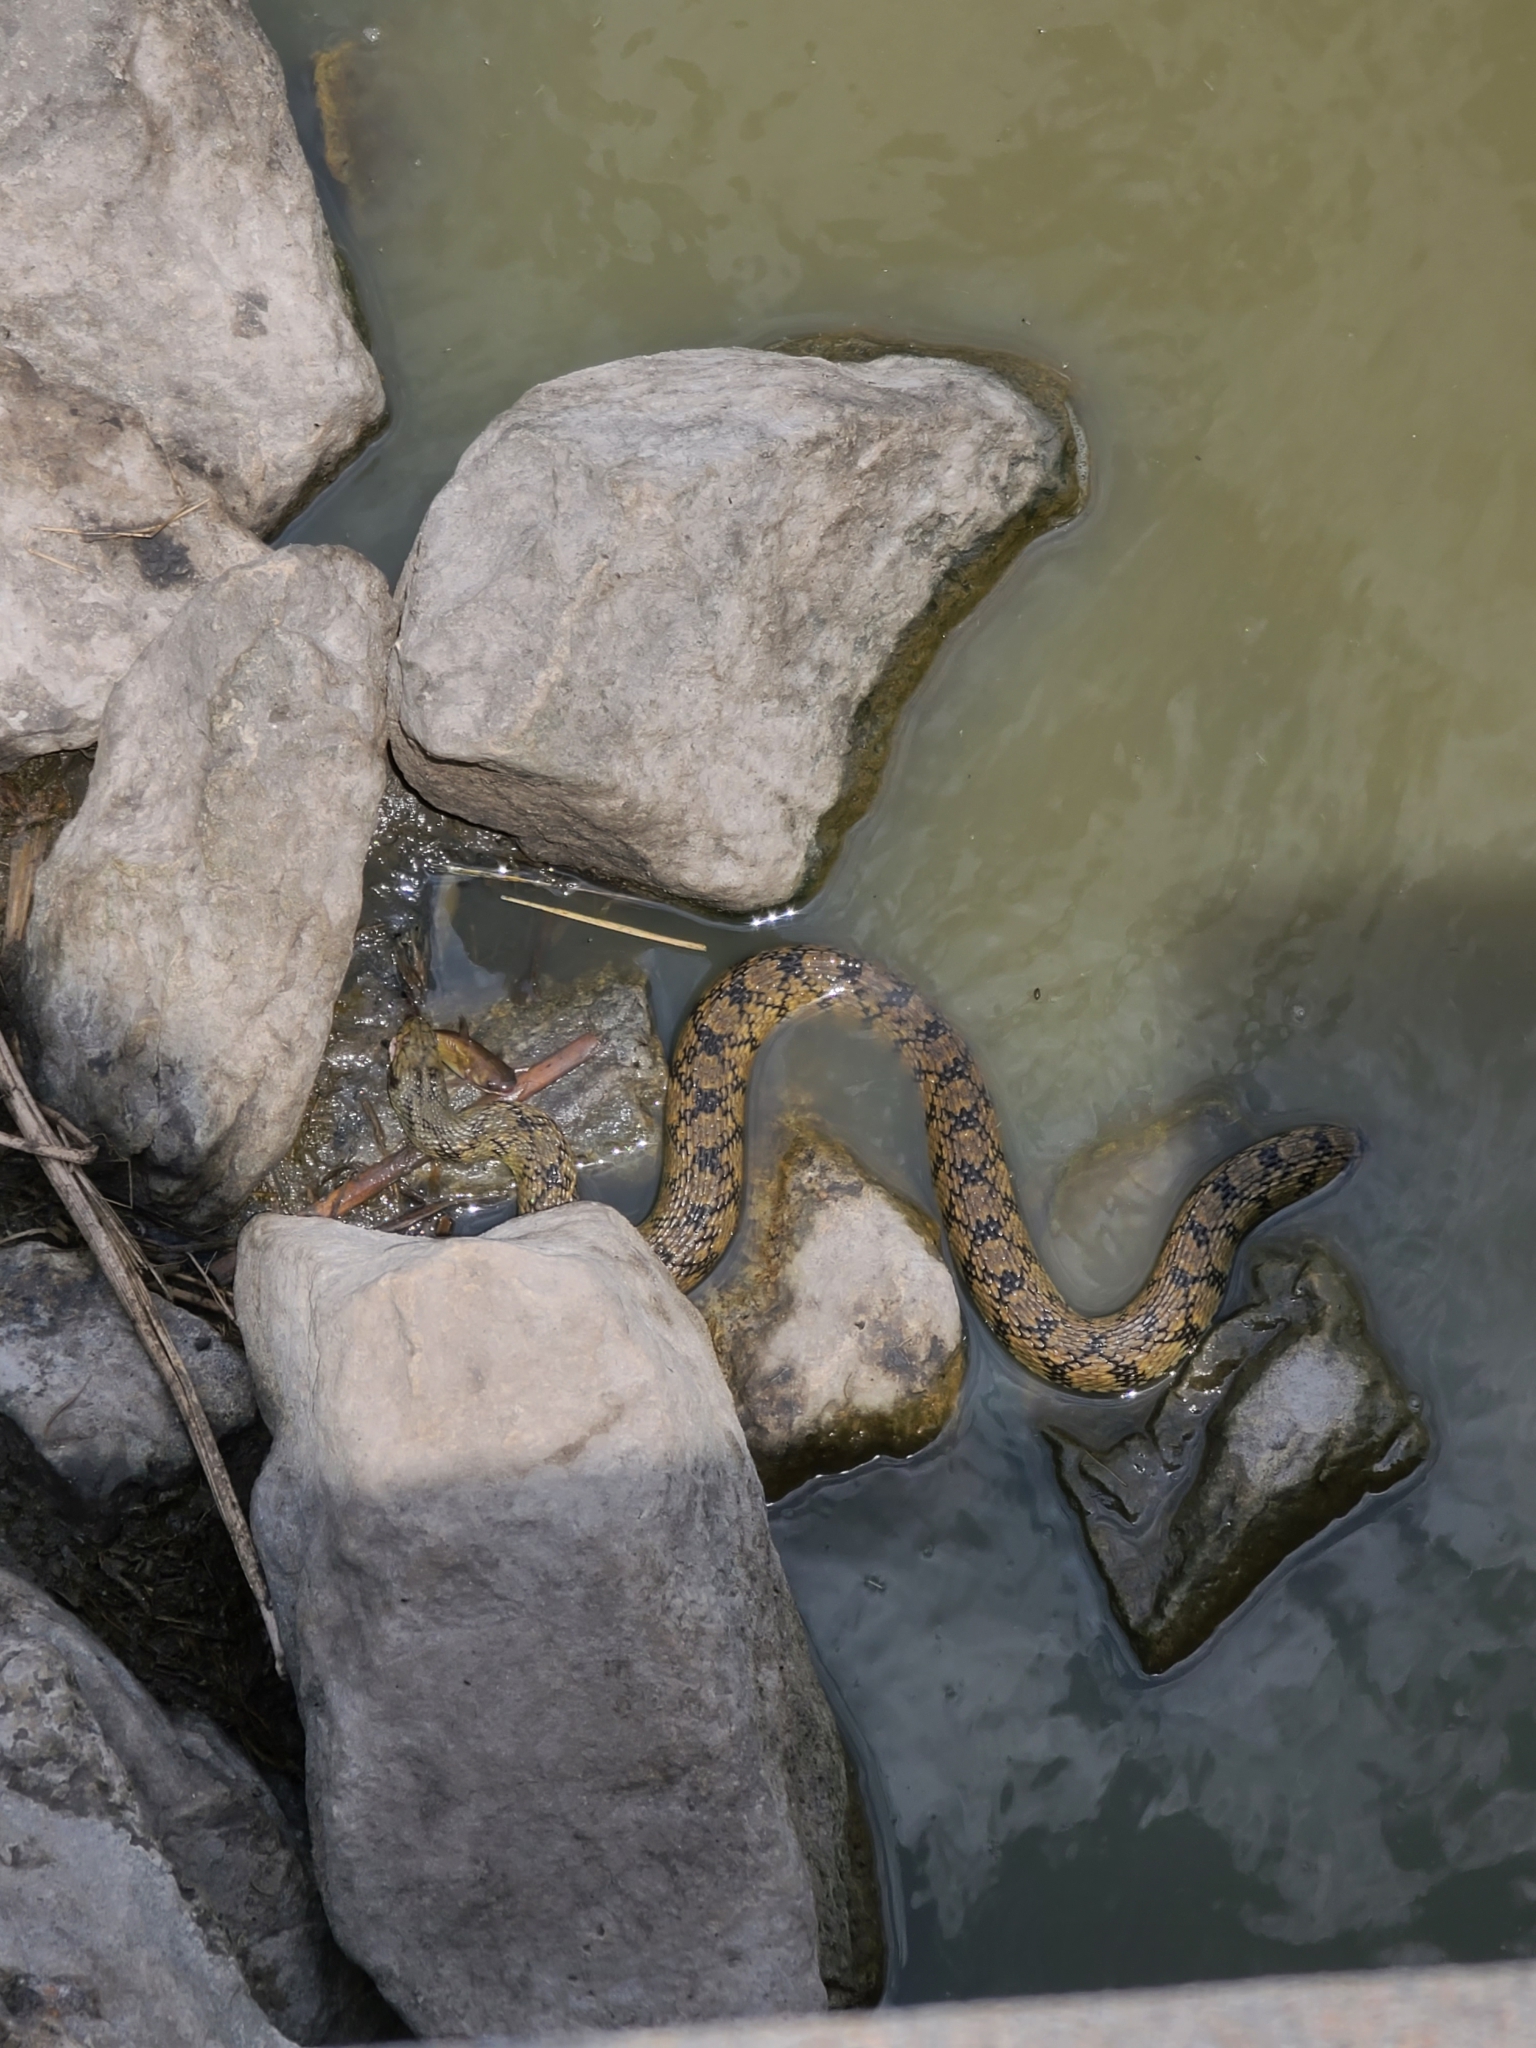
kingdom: Animalia
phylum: Chordata
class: Squamata
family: Colubridae
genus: Nerodia
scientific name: Nerodia rhombifer
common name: Diamondback water snake
